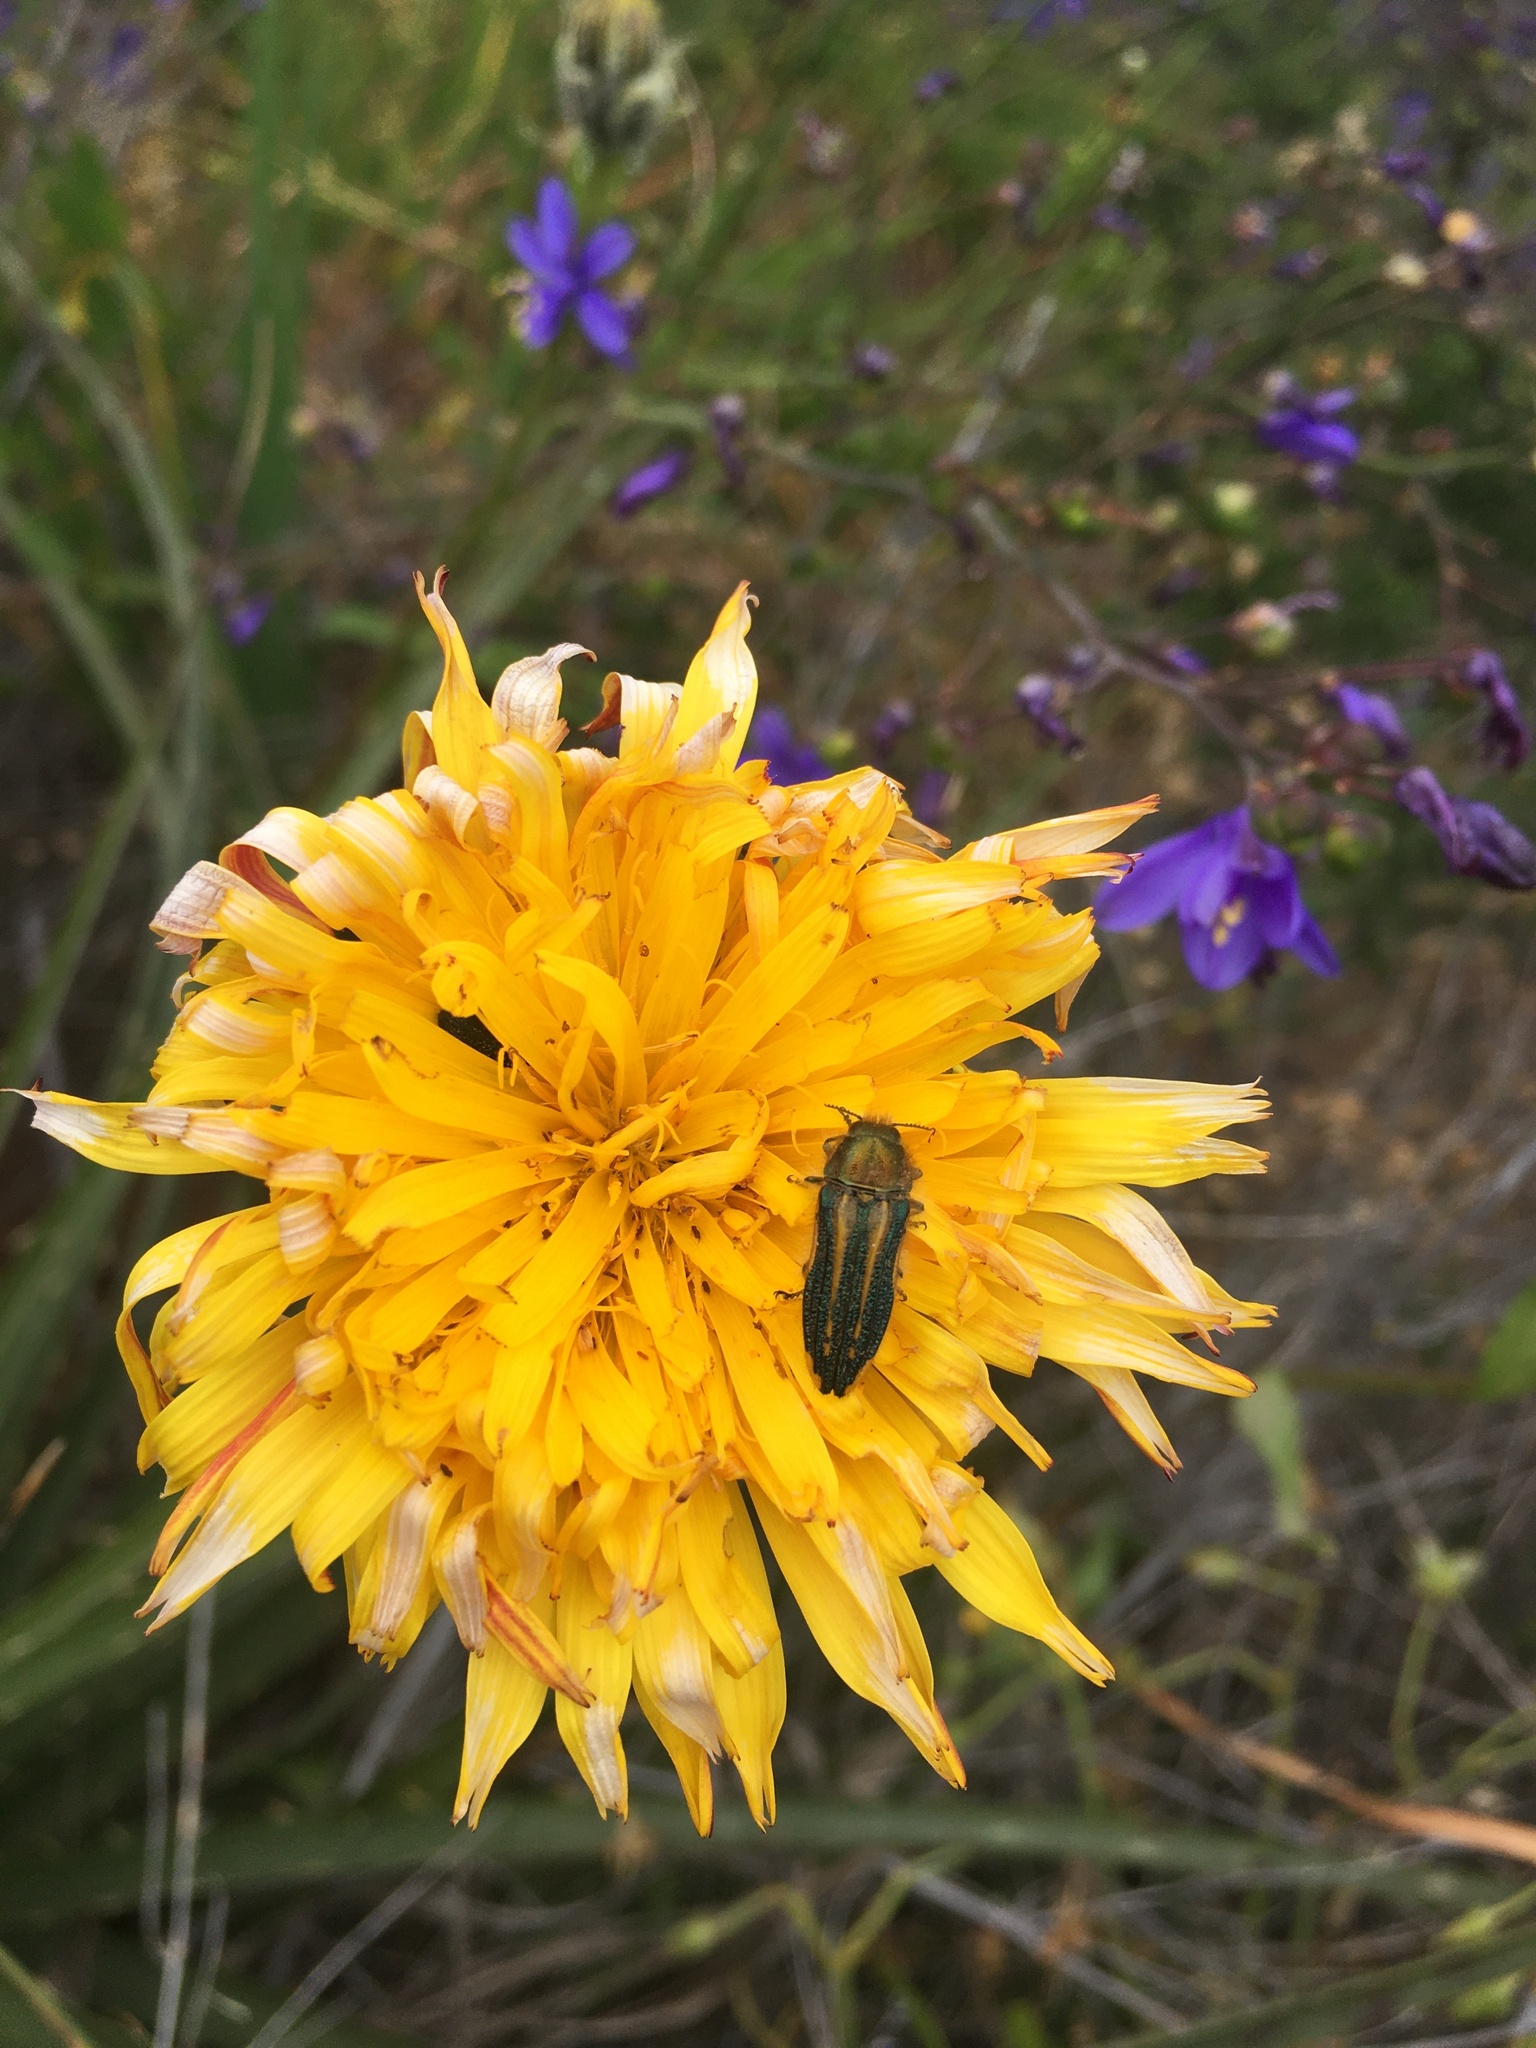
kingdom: Animalia
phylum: Arthropoda
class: Insecta
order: Coleoptera
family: Buprestidae
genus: Lasionota
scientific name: Lasionota rouletii
